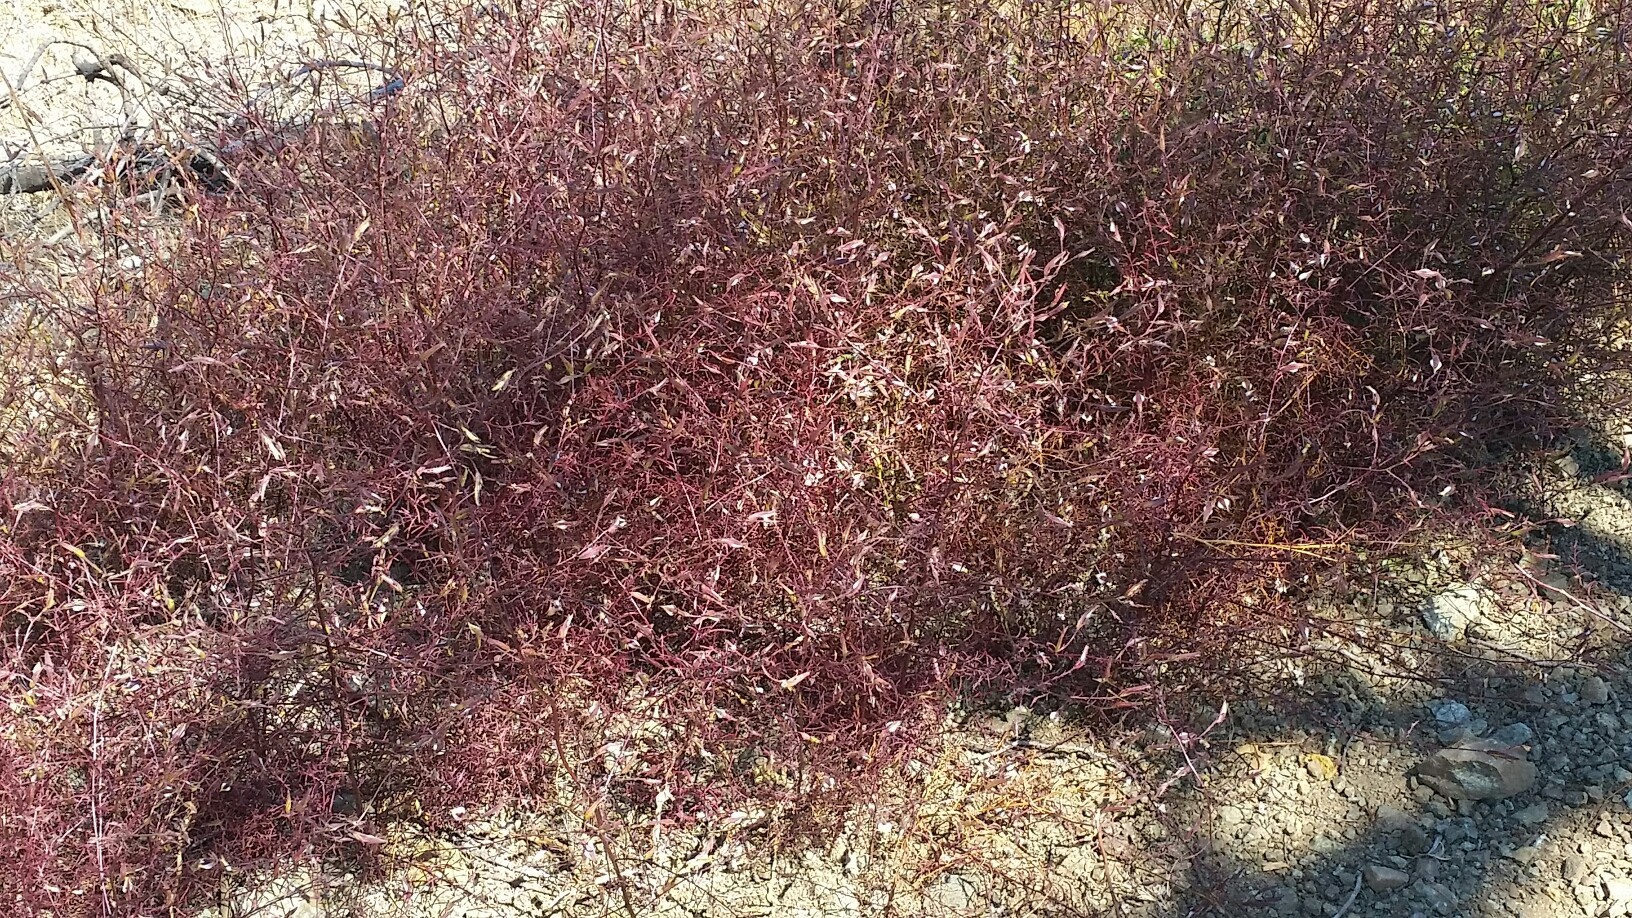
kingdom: Plantae
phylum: Tracheophyta
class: Magnoliopsida
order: Caryophyllales
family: Polygonaceae
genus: Eriogonum
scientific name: Eriogonum luteolum
